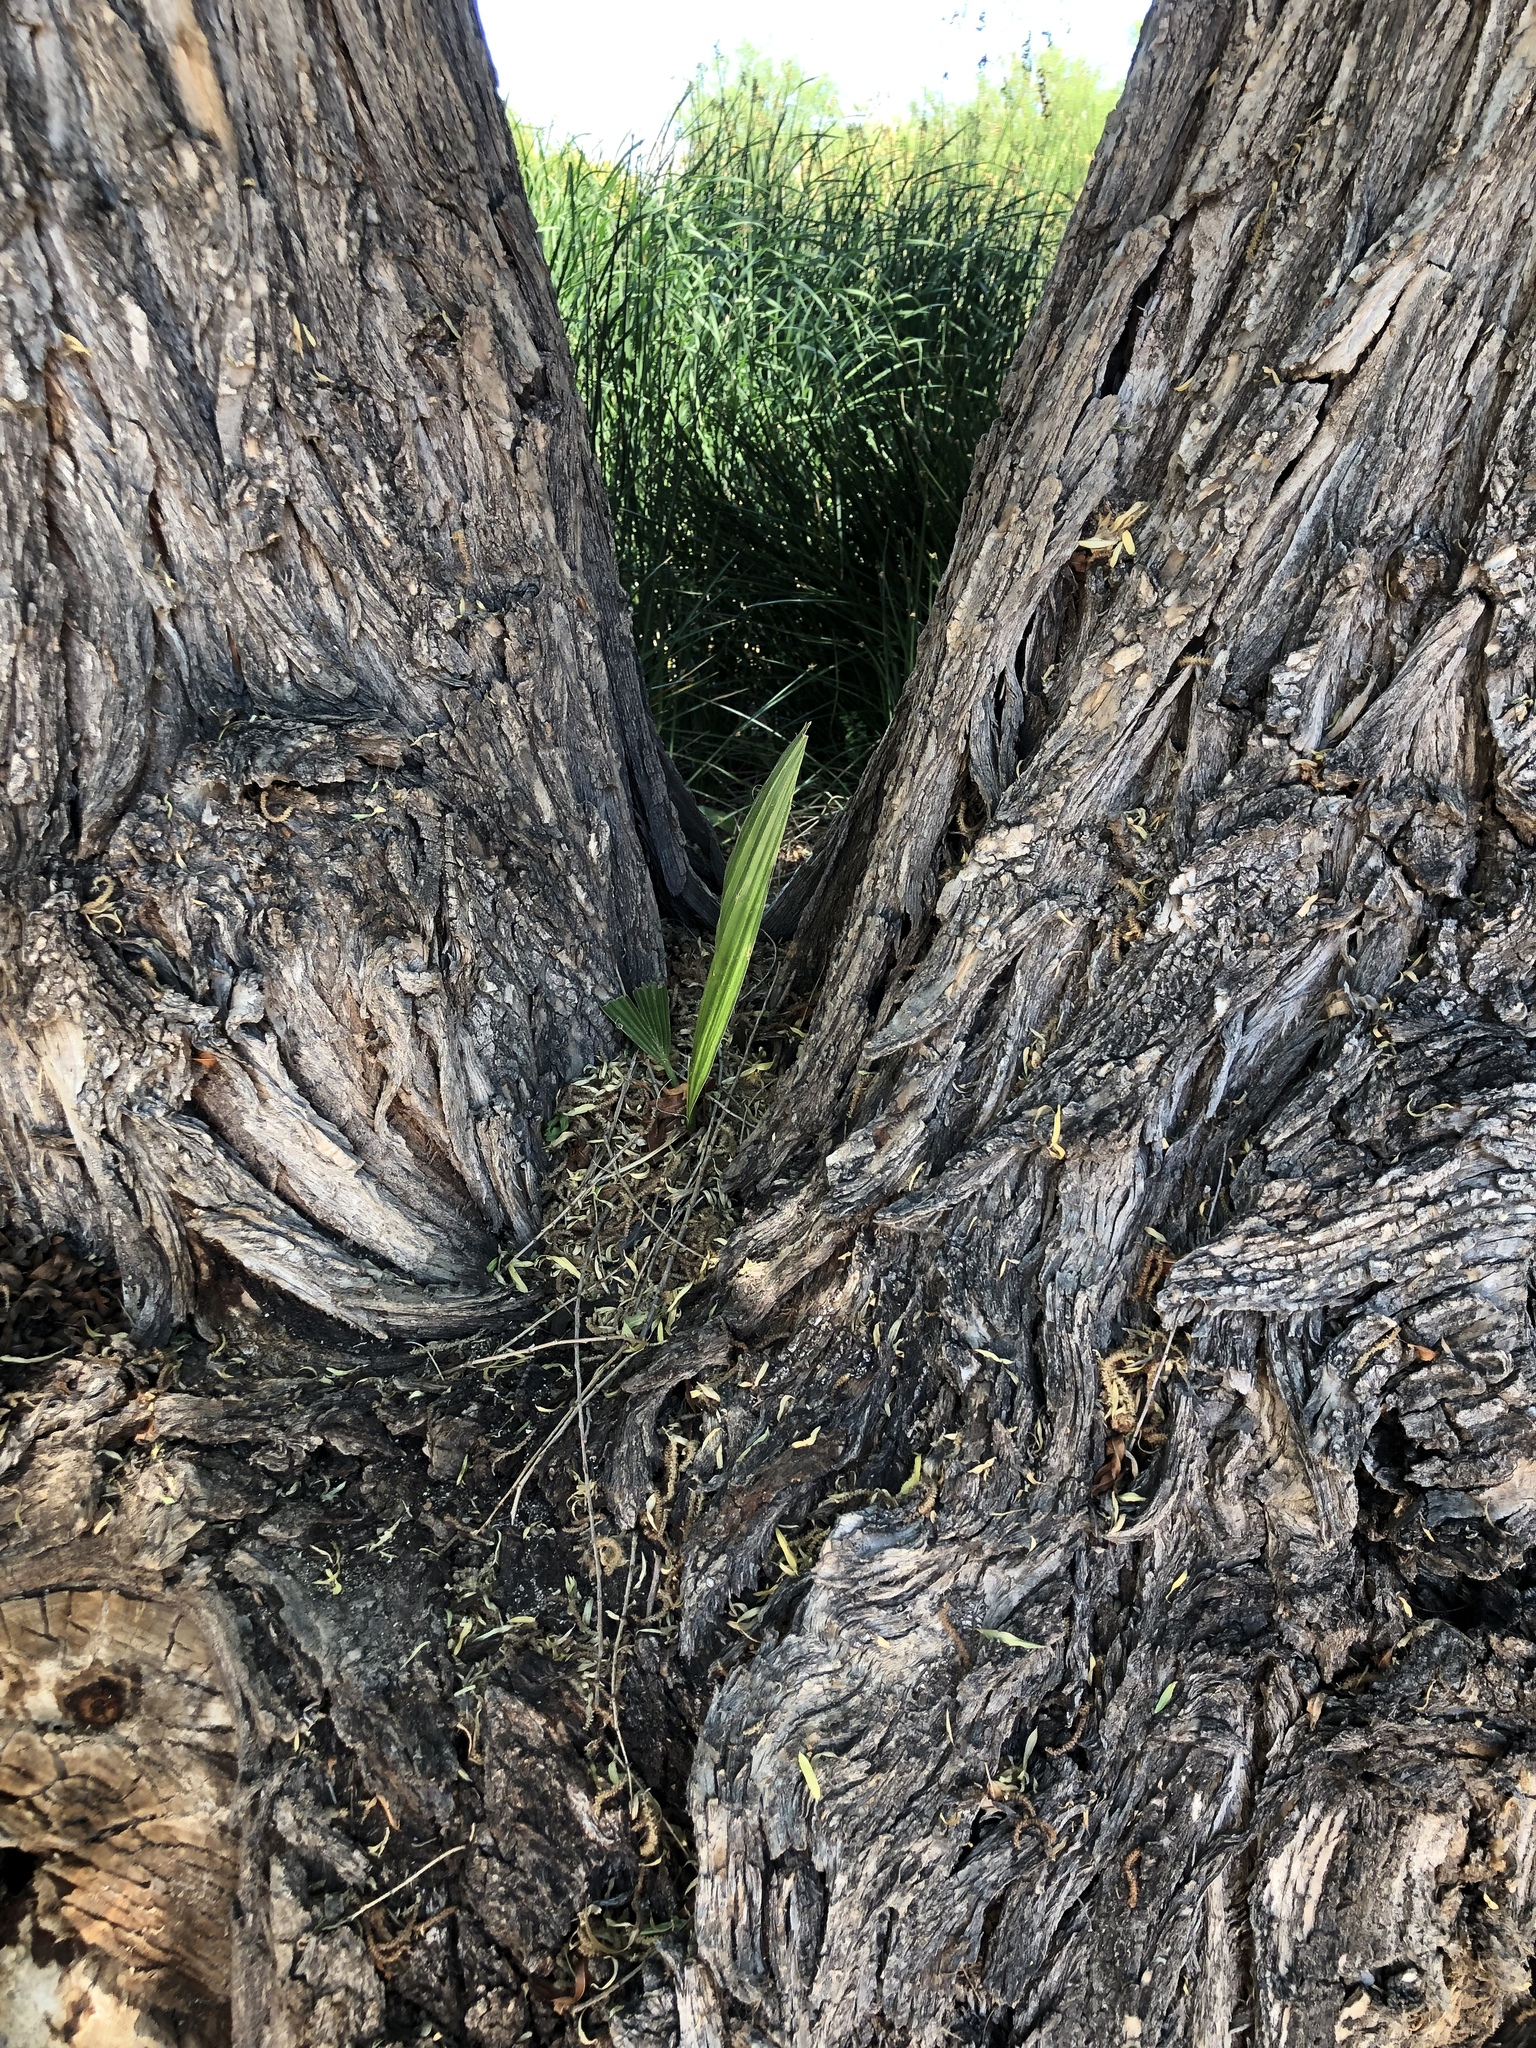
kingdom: Plantae
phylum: Tracheophyta
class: Liliopsida
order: Arecales
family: Arecaceae
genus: Washingtonia
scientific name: Washingtonia filifera
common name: California fan palm
